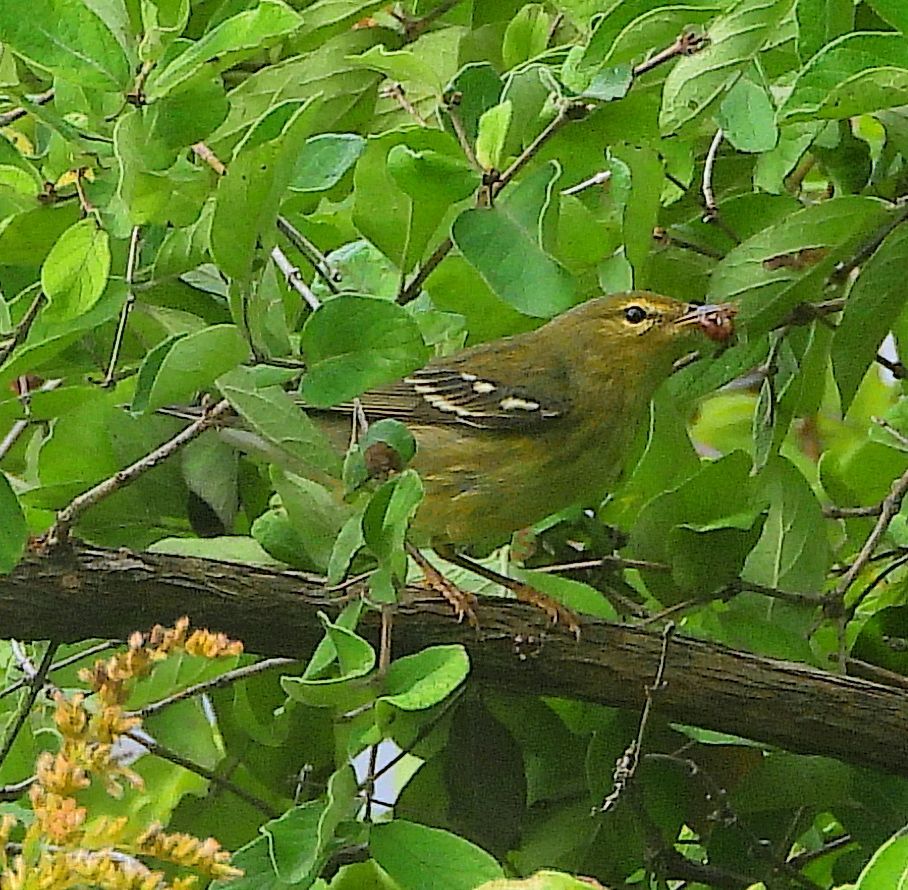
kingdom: Animalia
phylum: Chordata
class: Aves
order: Passeriformes
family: Parulidae
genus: Setophaga
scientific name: Setophaga striata
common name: Blackpoll warbler
